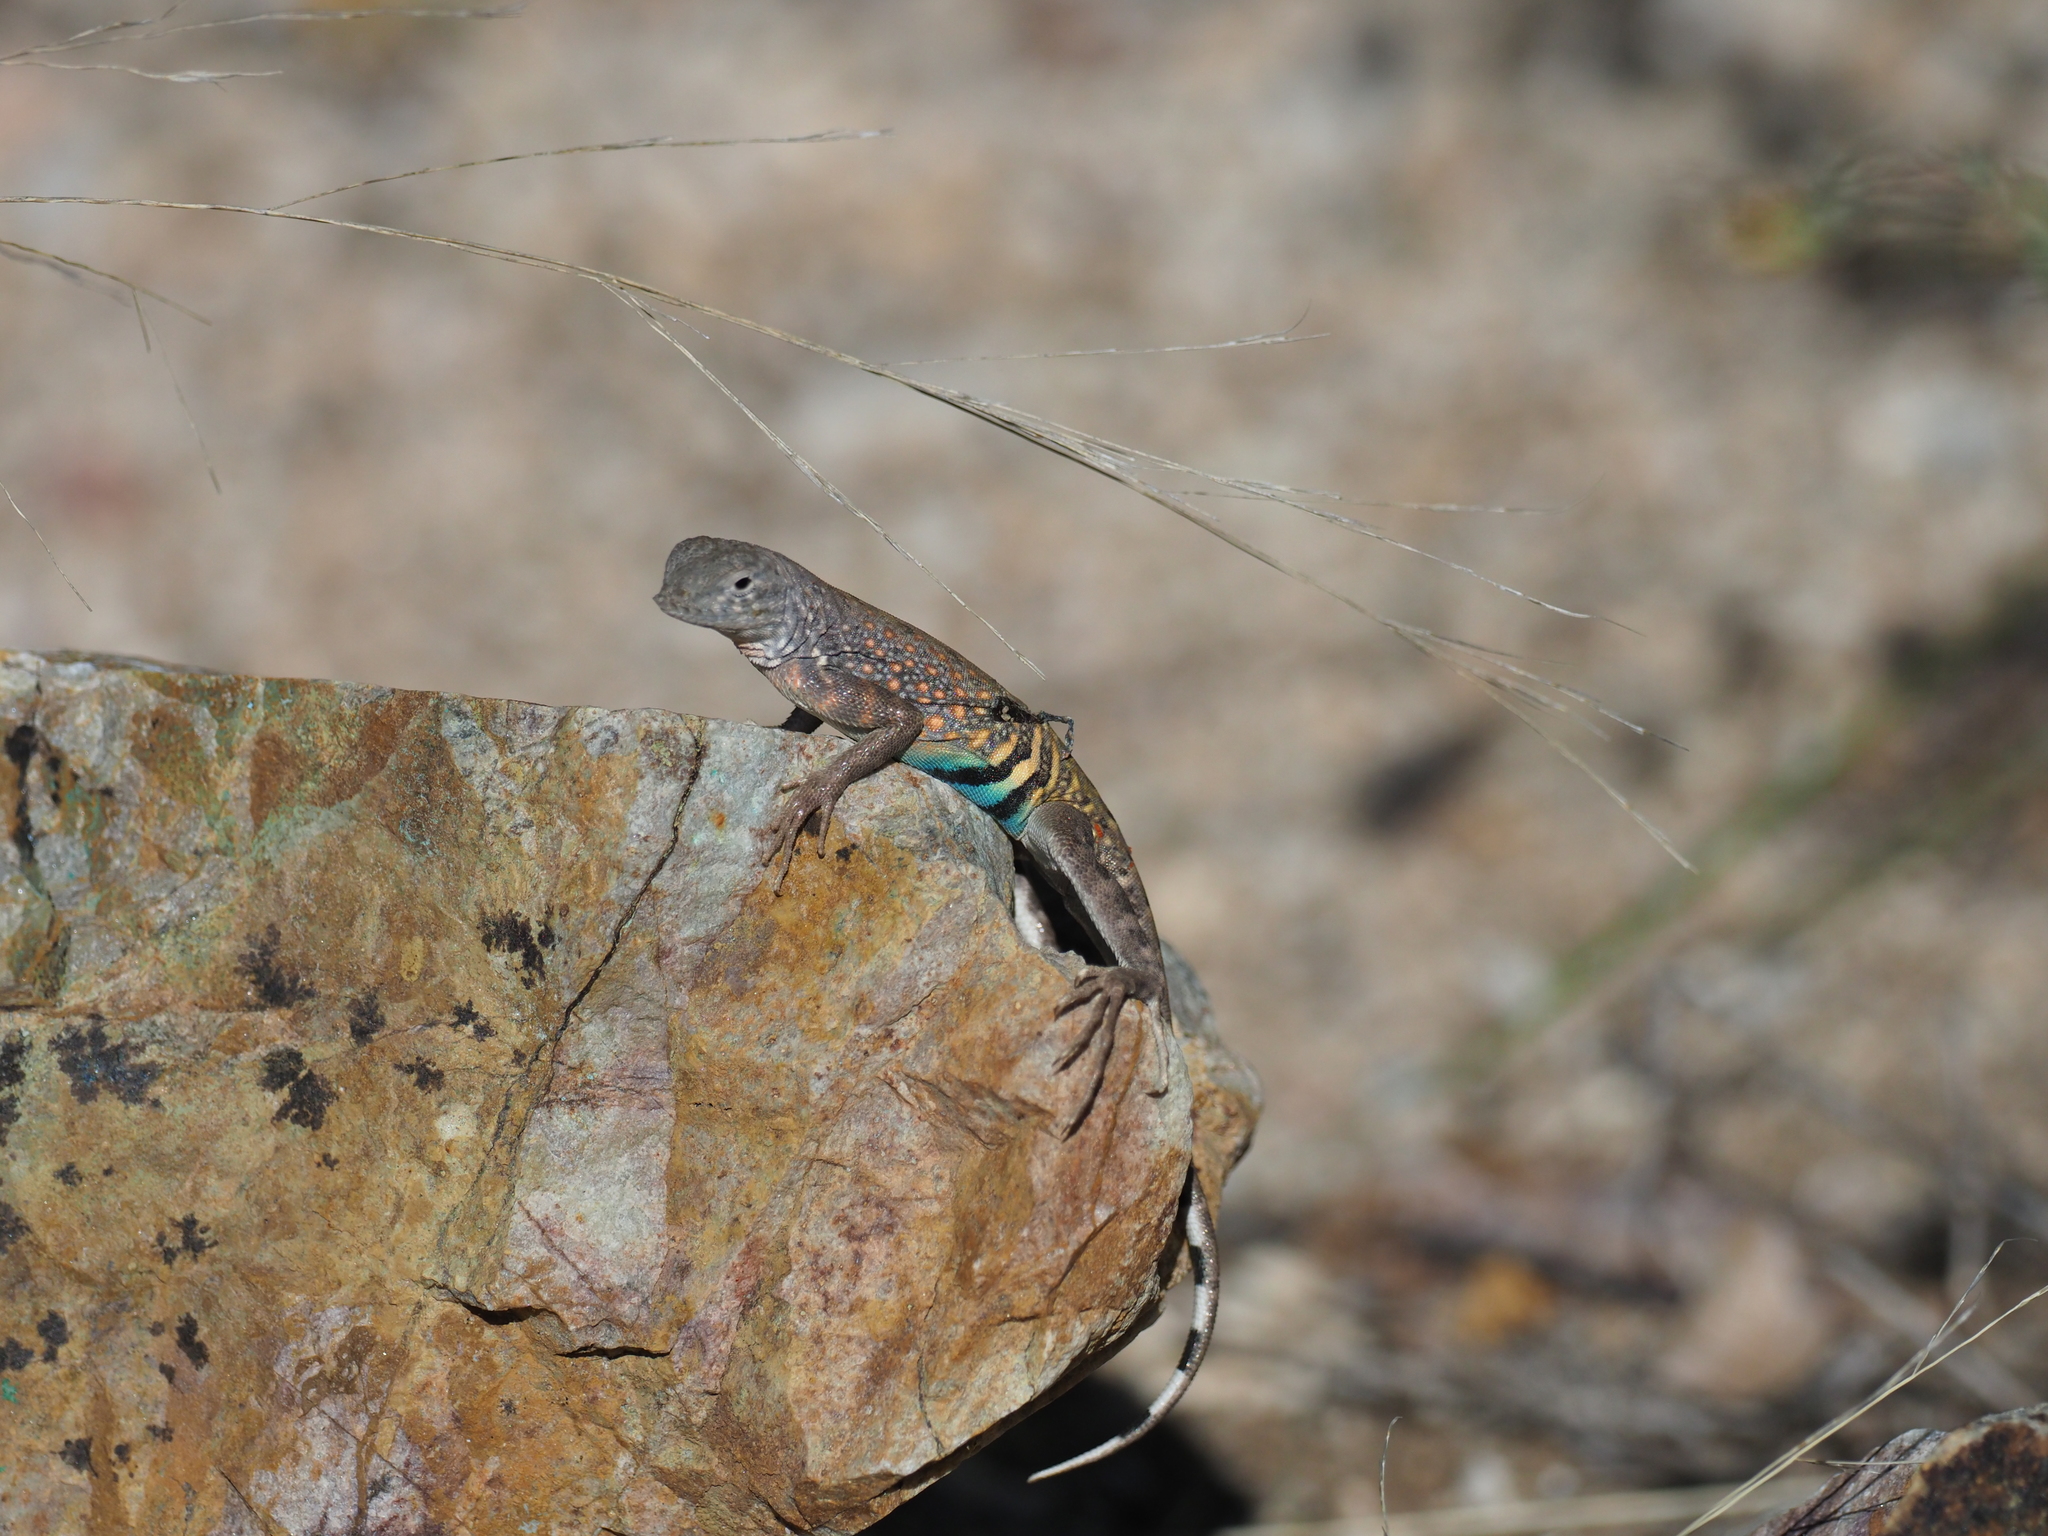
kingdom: Animalia
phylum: Chordata
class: Squamata
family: Phrynosomatidae
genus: Cophosaurus
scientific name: Cophosaurus texanus
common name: Greater earless lizard
